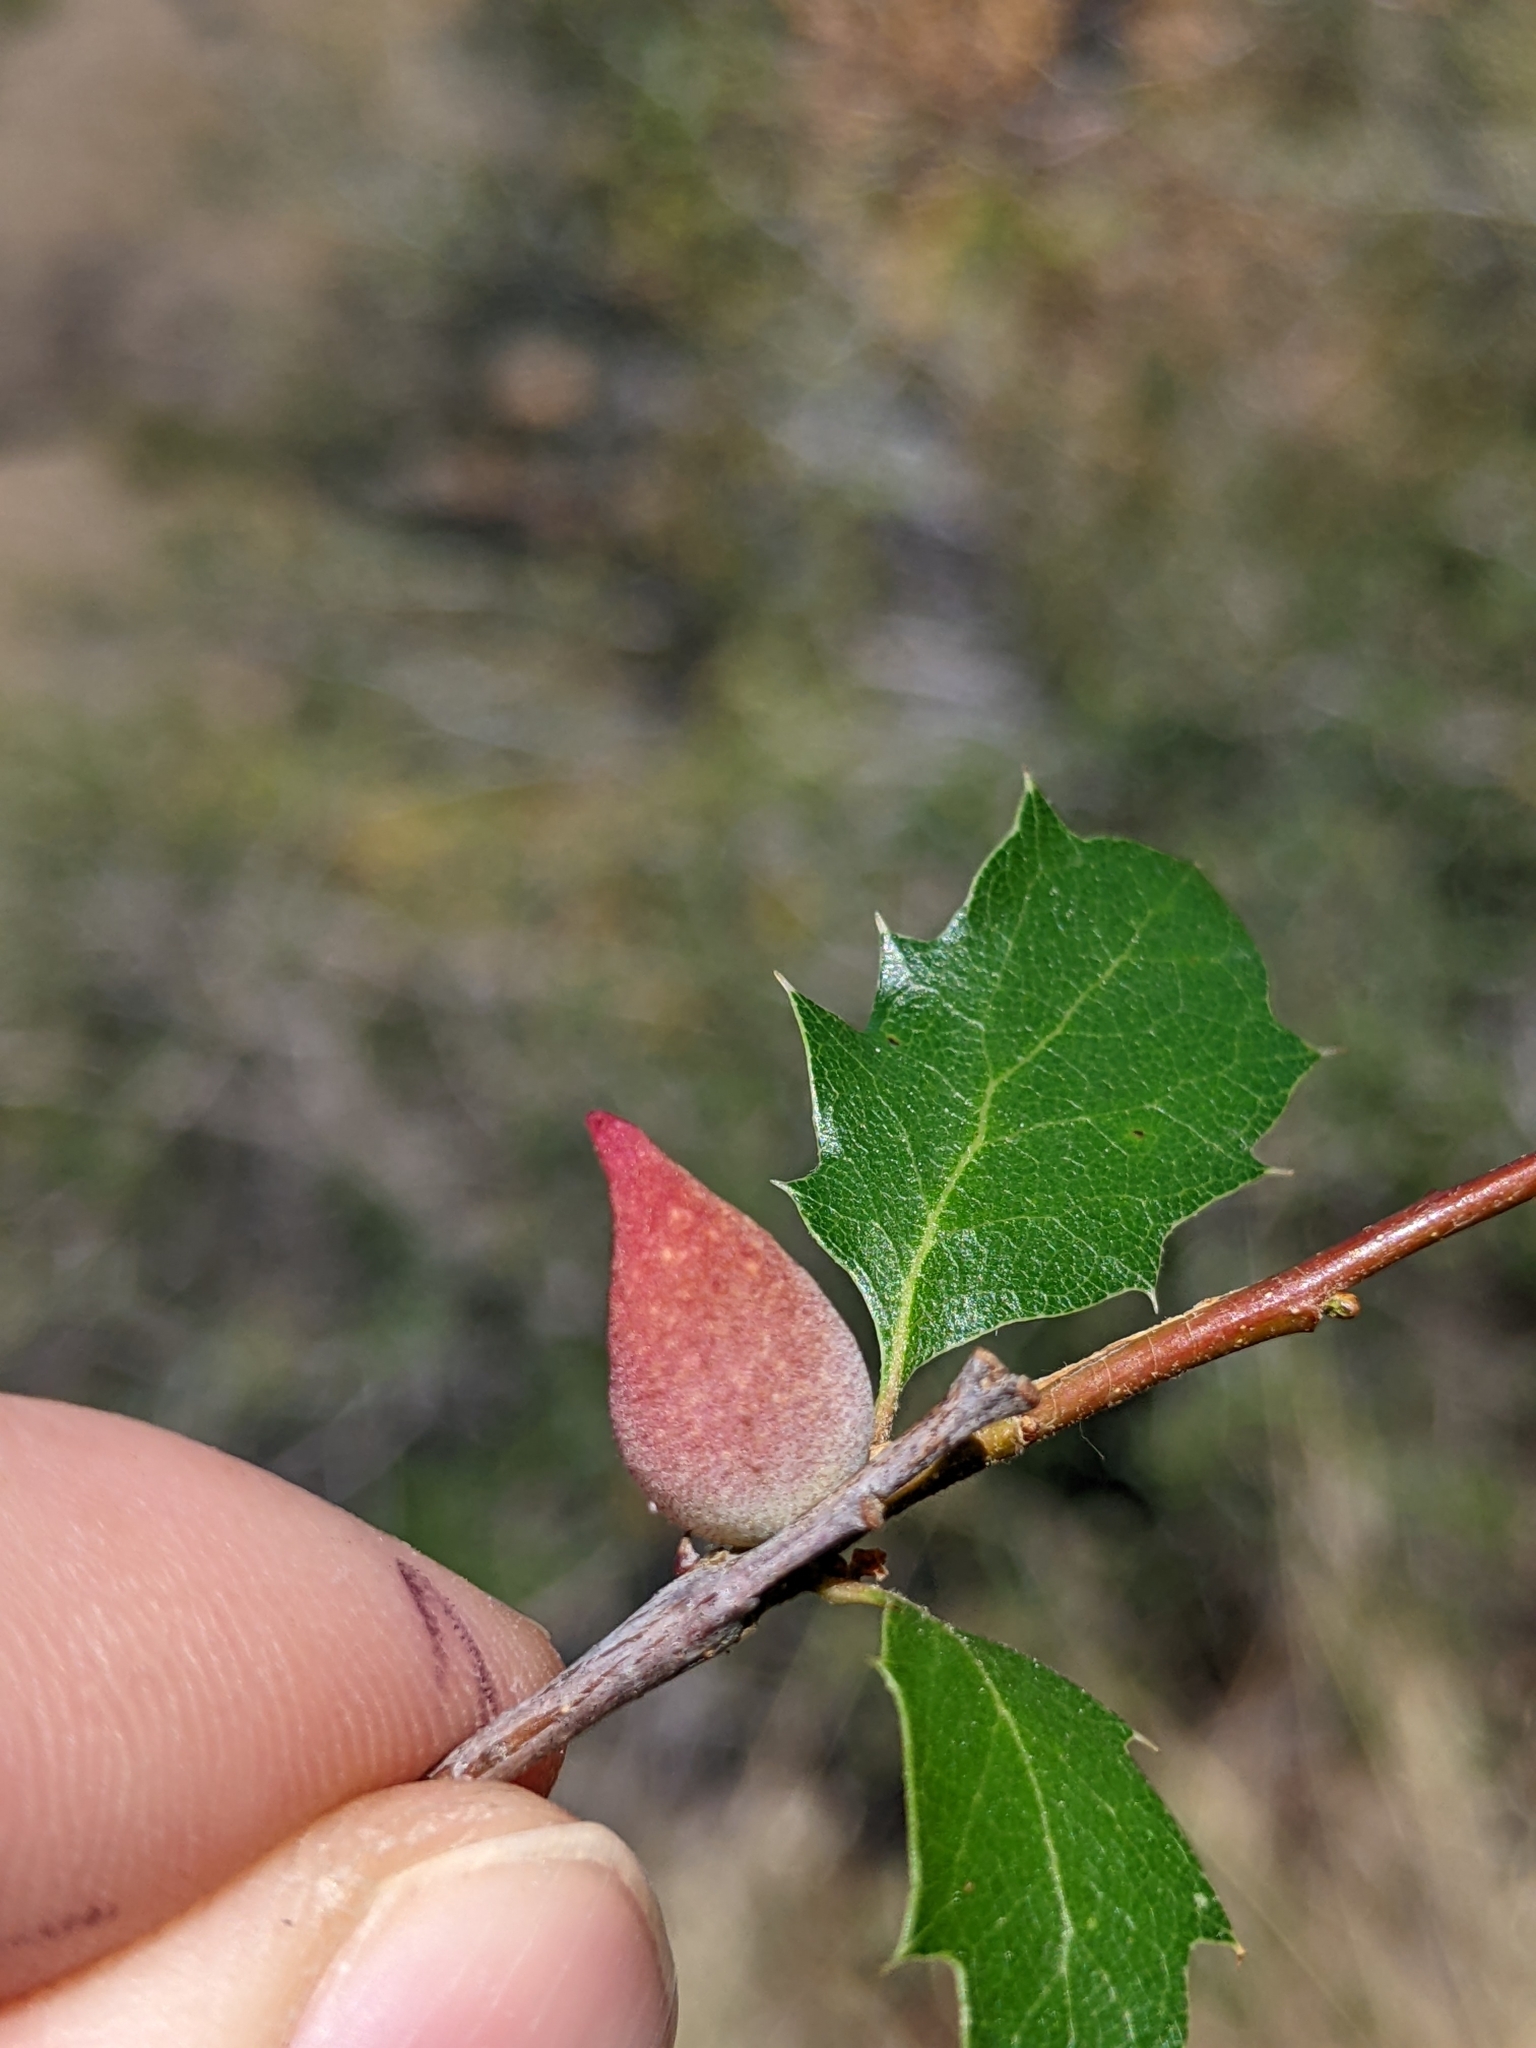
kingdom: Animalia
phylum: Arthropoda
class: Insecta
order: Hymenoptera
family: Cynipidae
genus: Burnettweldia
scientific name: Burnettweldia
